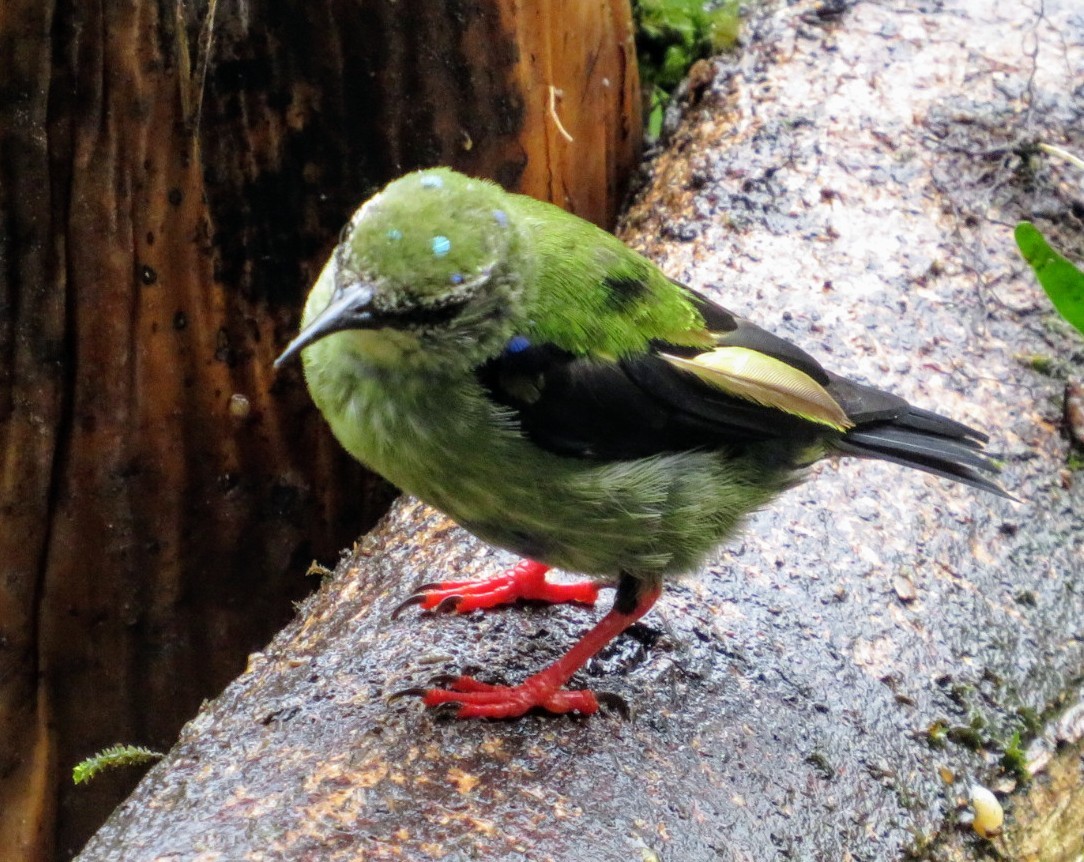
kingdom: Animalia
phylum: Chordata
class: Aves
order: Passeriformes
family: Thraupidae
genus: Cyanerpes
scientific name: Cyanerpes cyaneus
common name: Red-legged honeycreeper
